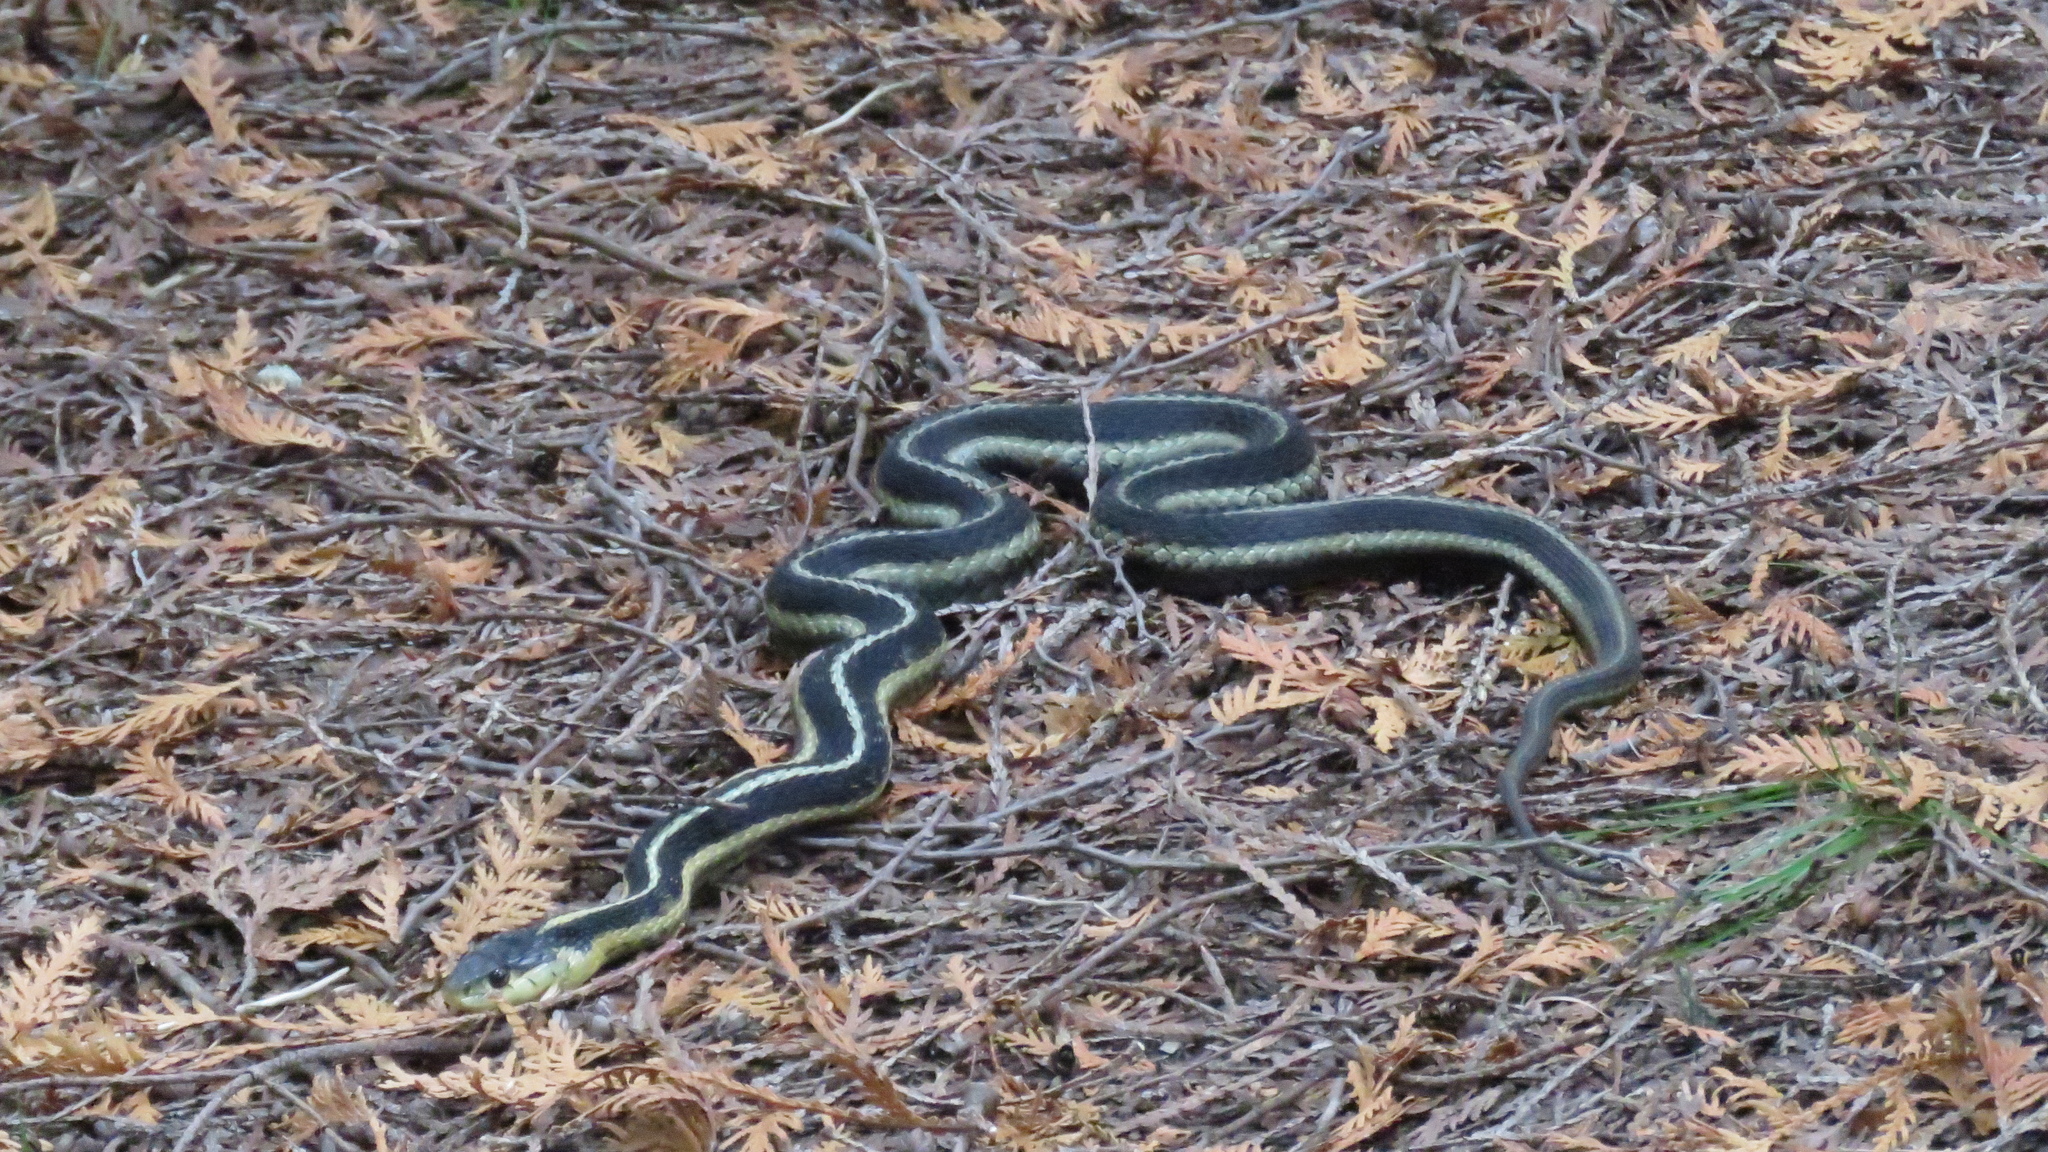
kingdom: Animalia
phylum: Chordata
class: Squamata
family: Colubridae
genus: Thamnophis
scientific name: Thamnophis sirtalis
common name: Common garter snake
